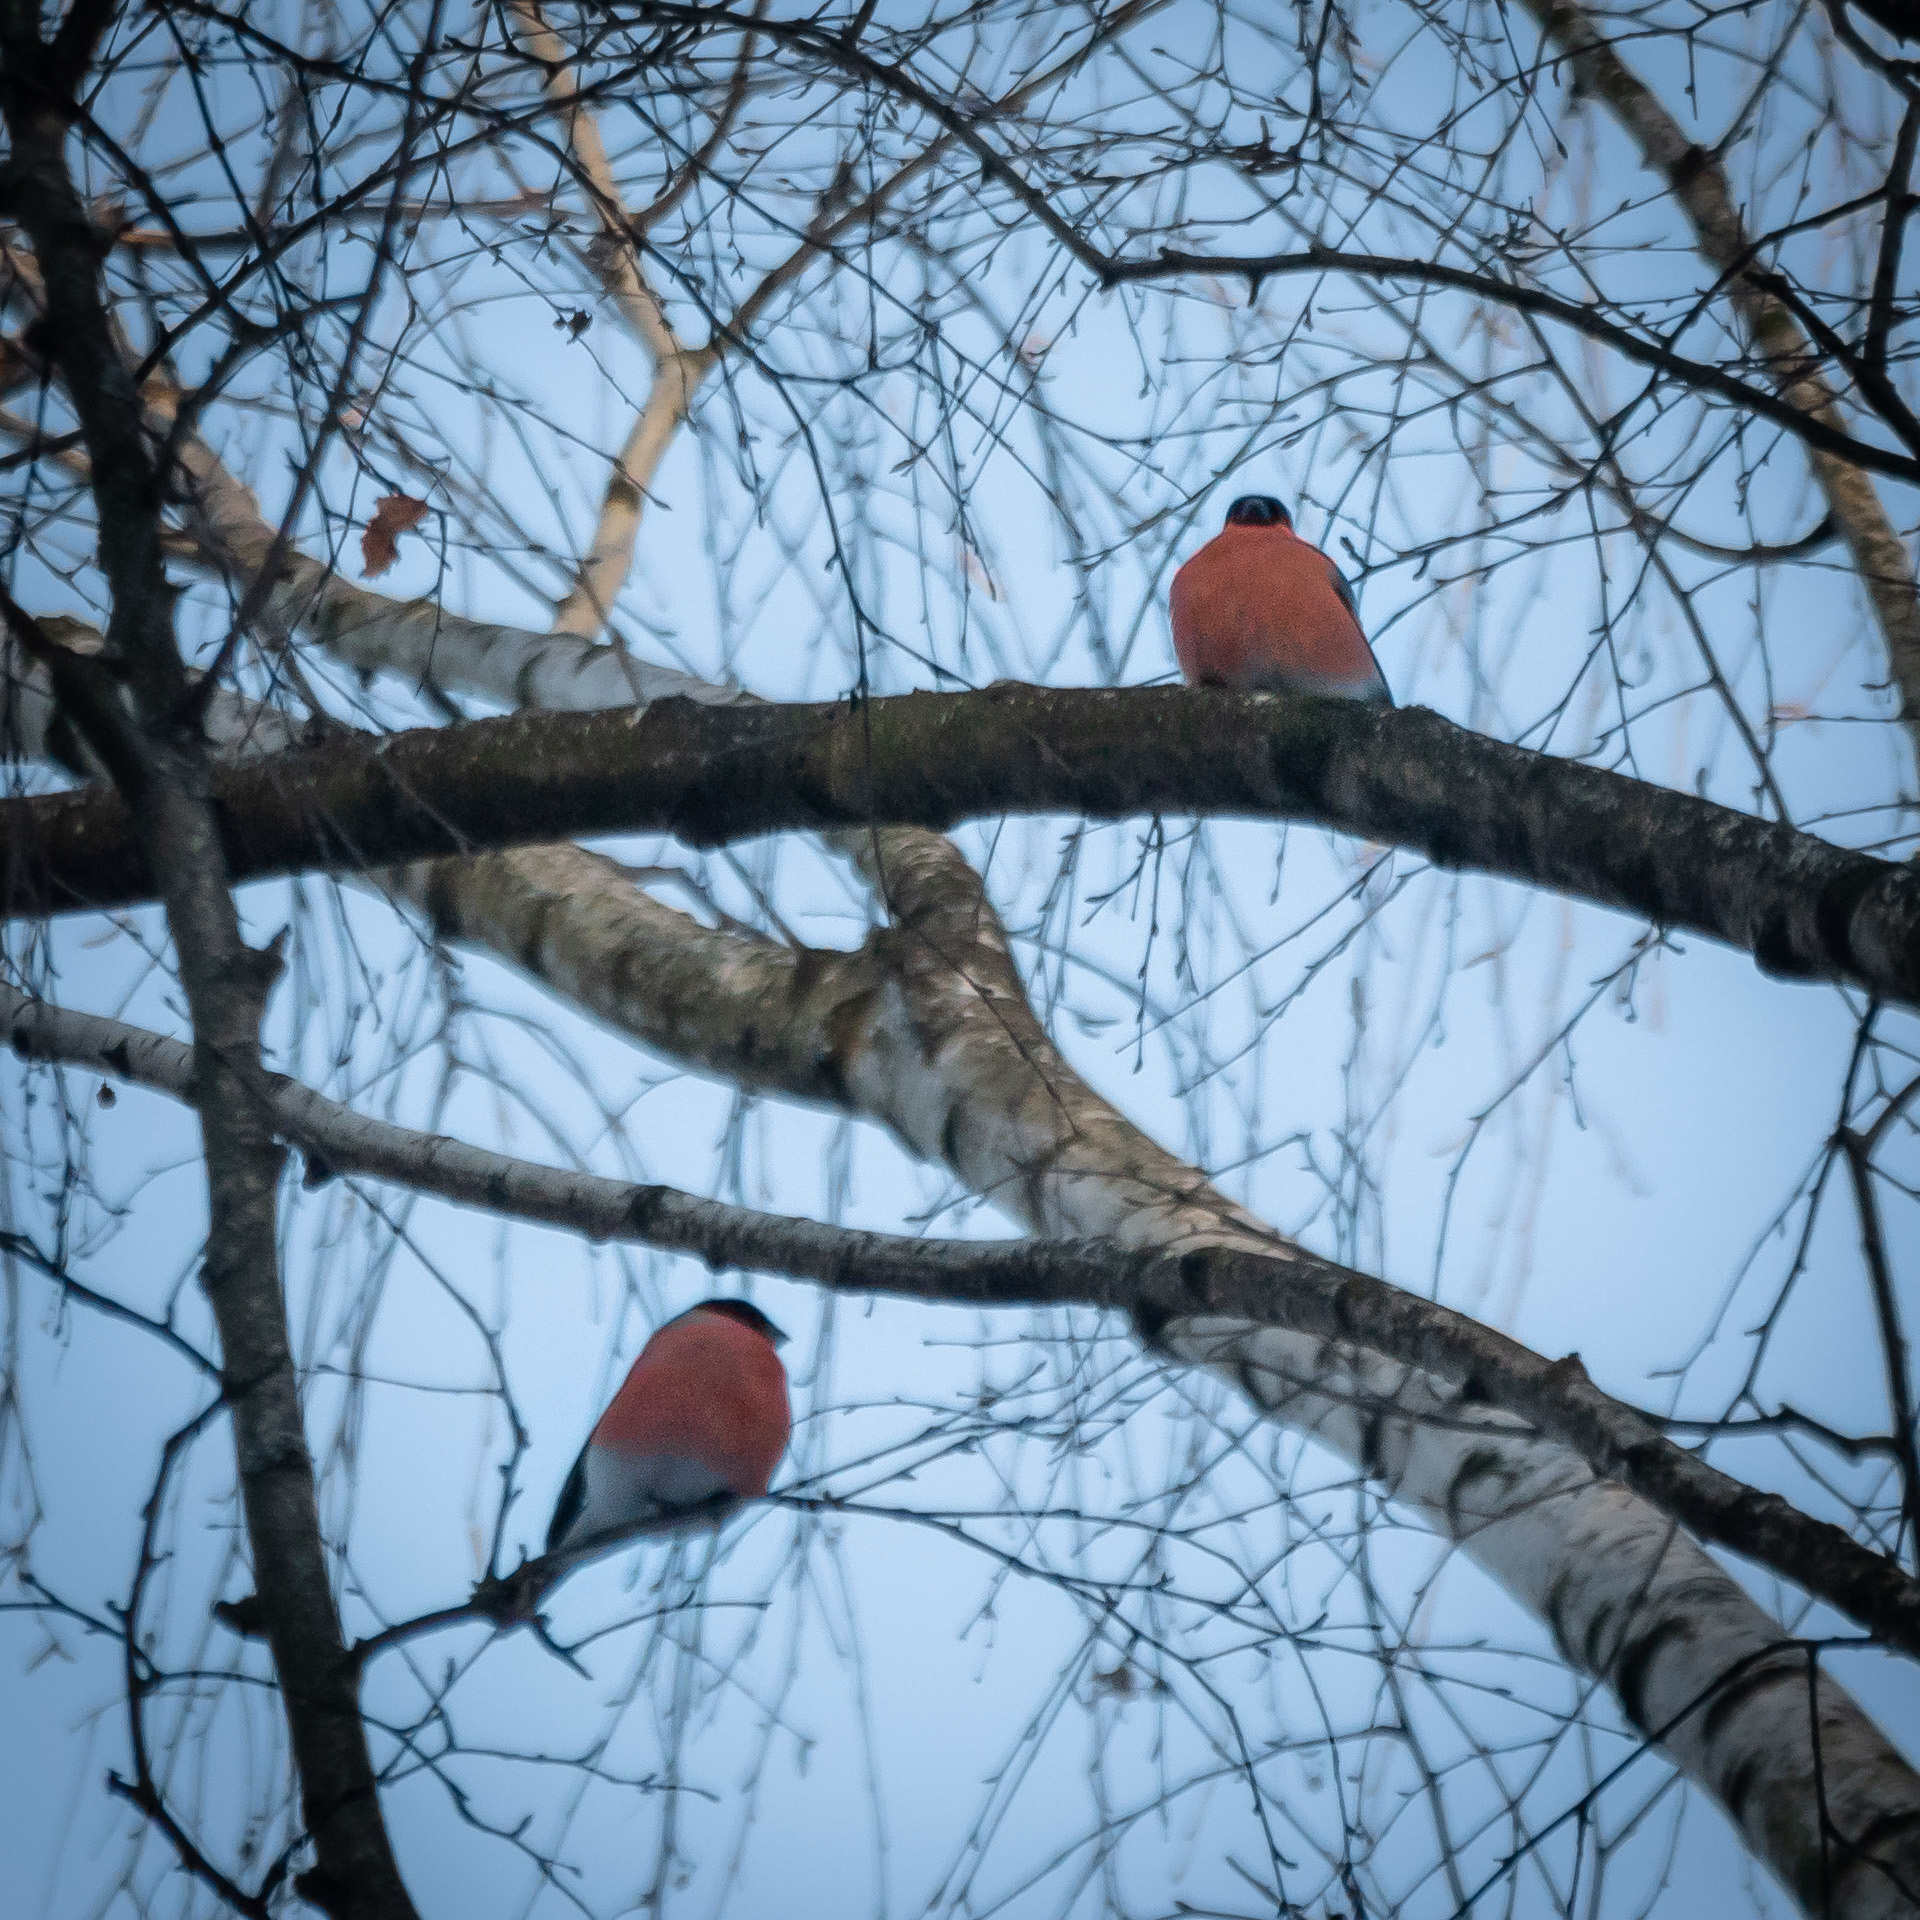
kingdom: Animalia
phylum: Chordata
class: Aves
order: Passeriformes
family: Fringillidae
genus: Pyrrhula
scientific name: Pyrrhula pyrrhula
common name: Eurasian bullfinch
